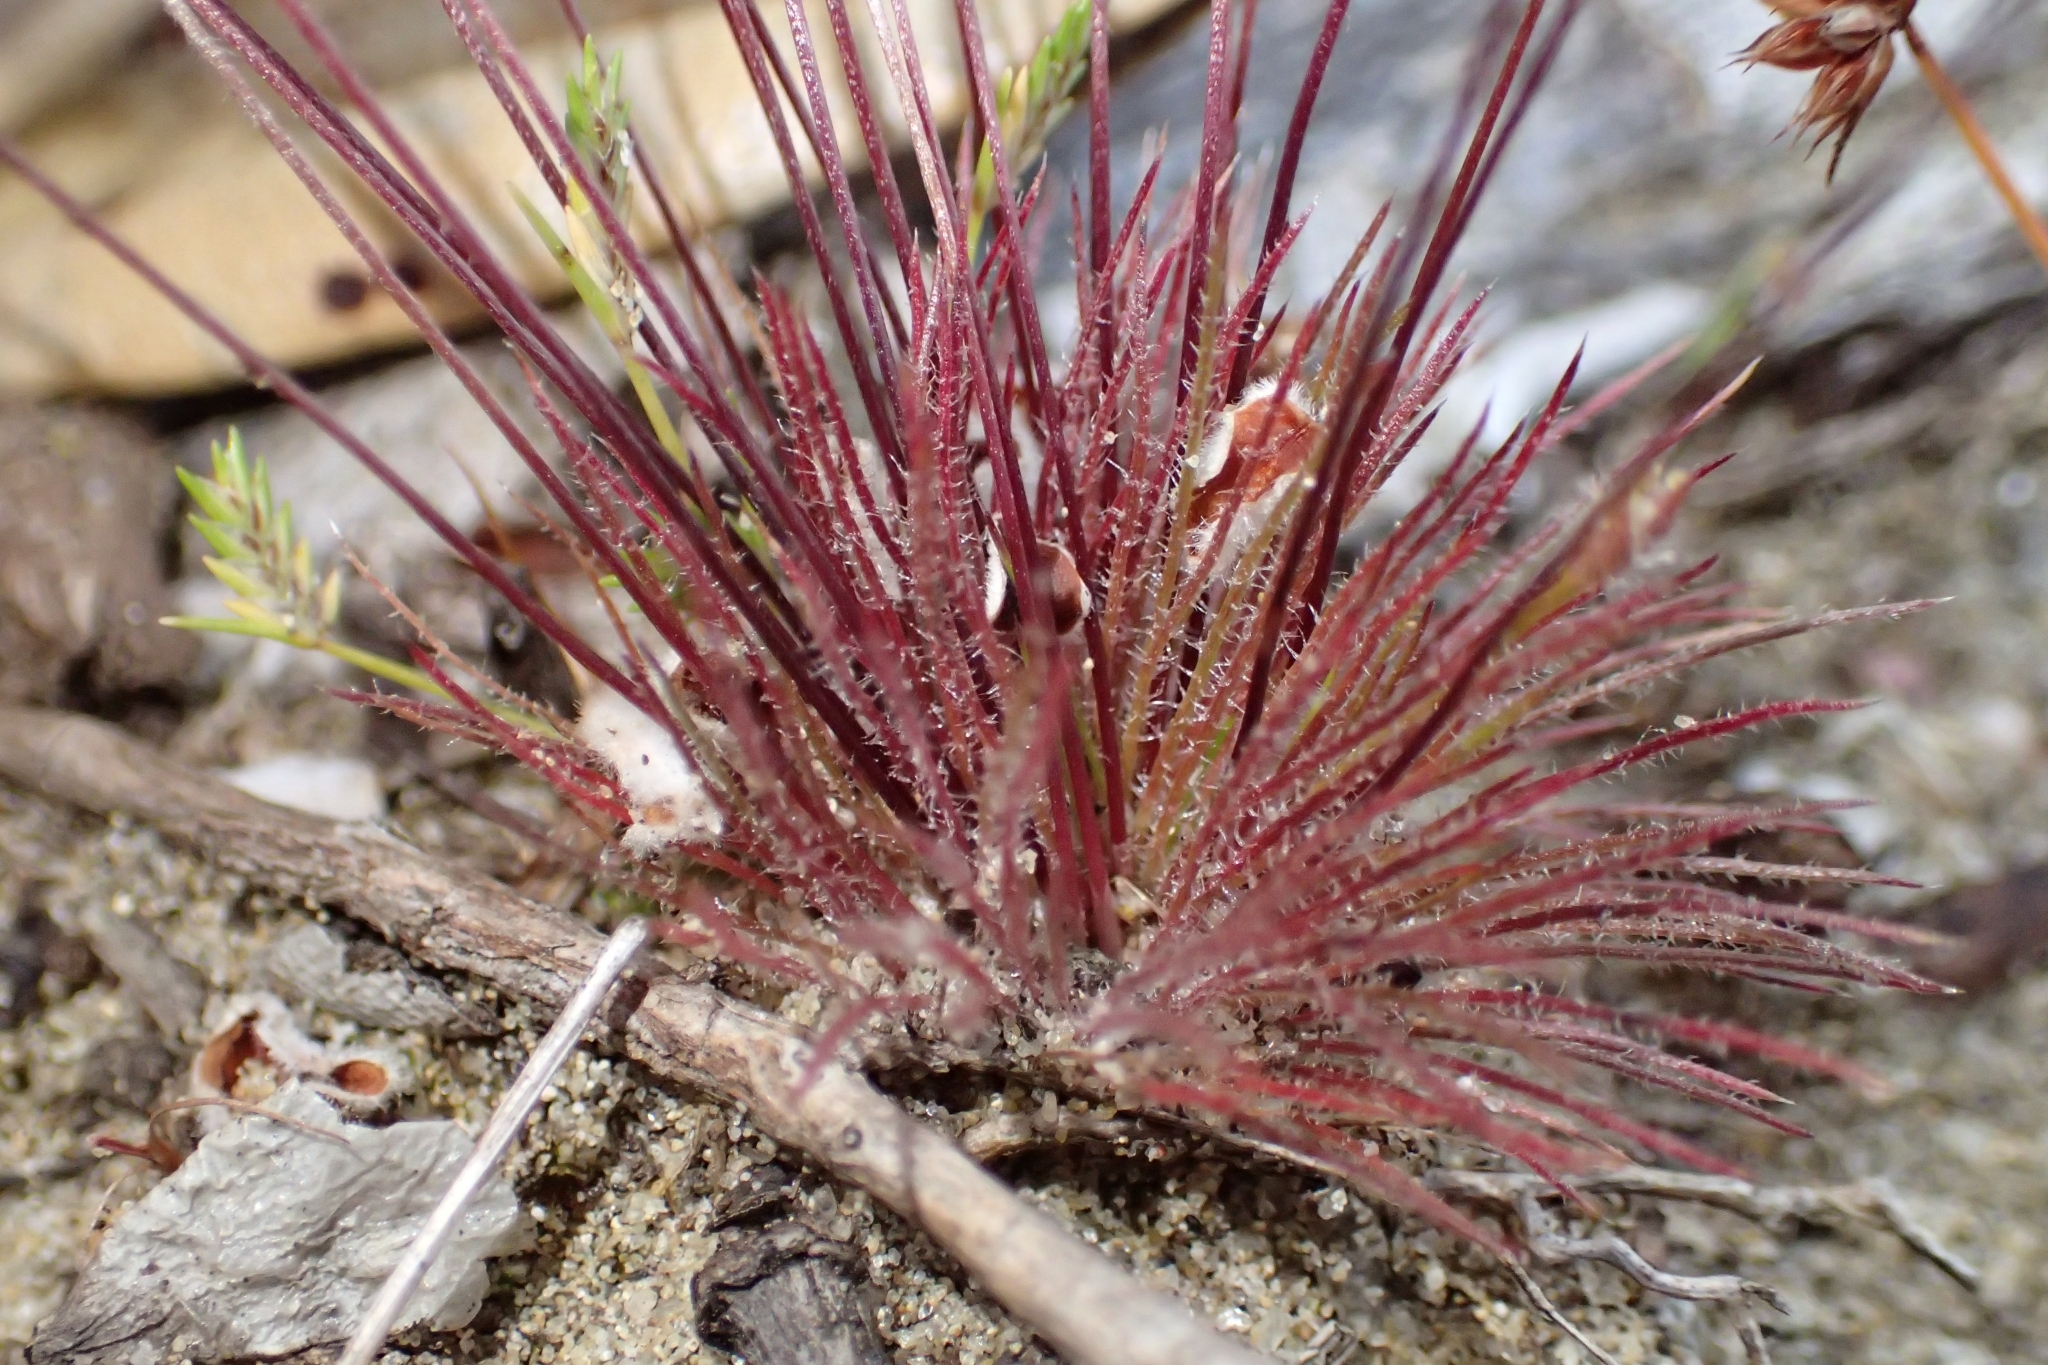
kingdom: Plantae
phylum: Tracheophyta
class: Liliopsida
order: Poales
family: Restionaceae
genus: Centrolepis
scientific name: Centrolepis strigosa
